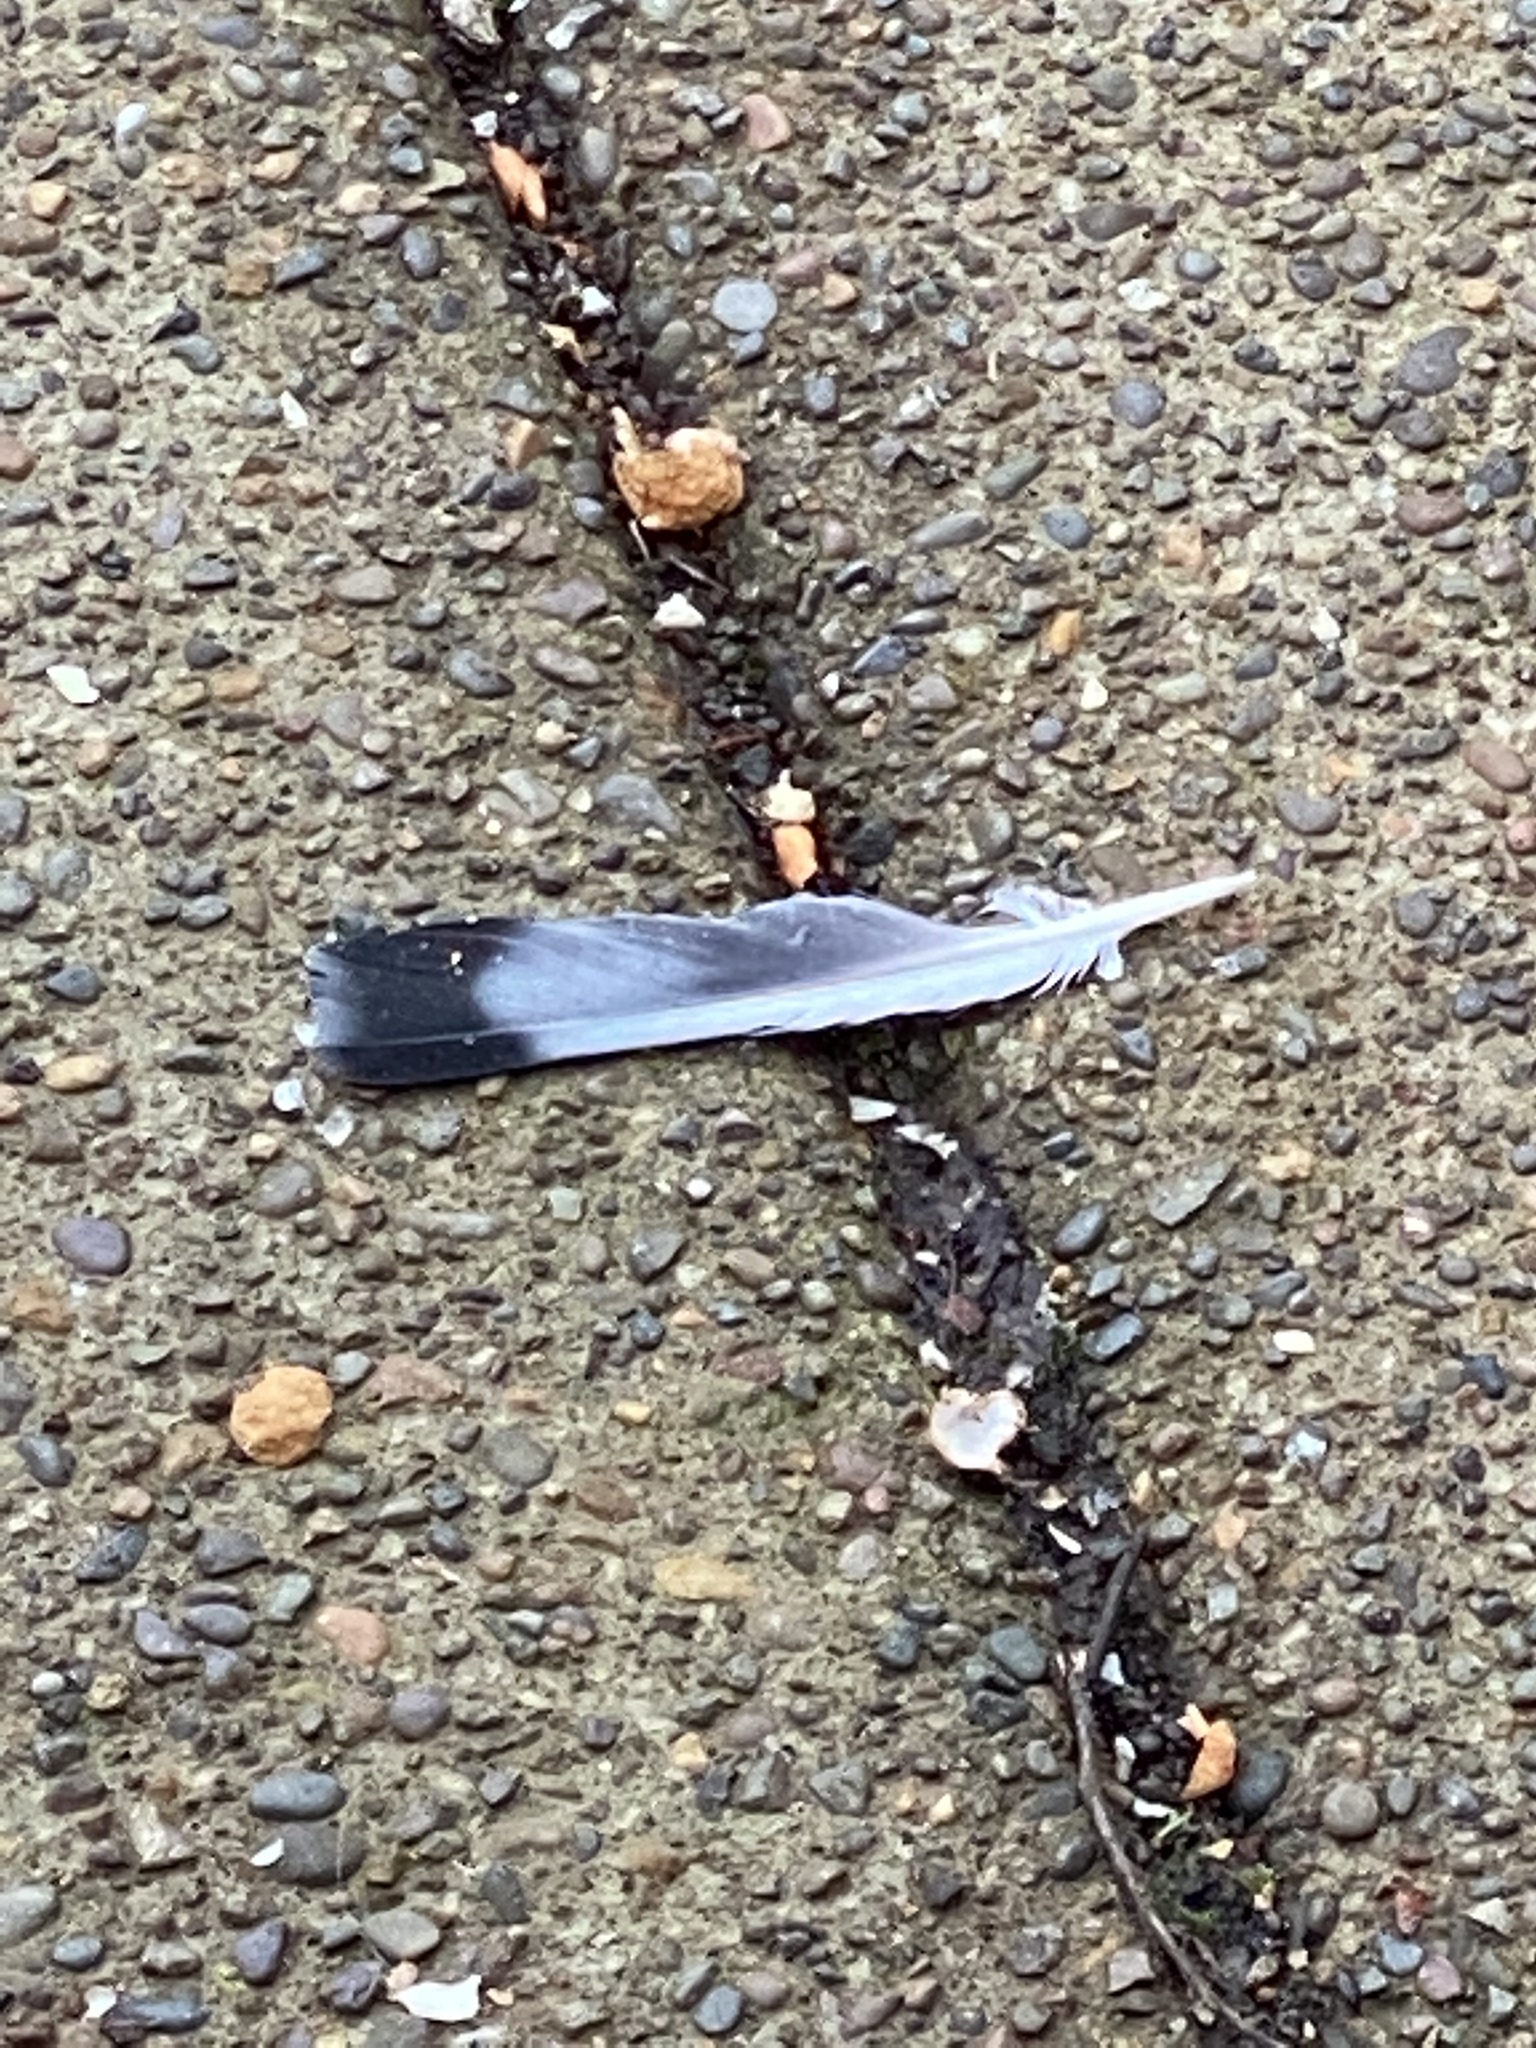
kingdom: Animalia
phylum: Chordata
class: Aves
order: Columbiformes
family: Columbidae
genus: Columba
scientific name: Columba livia
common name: Rock pigeon
